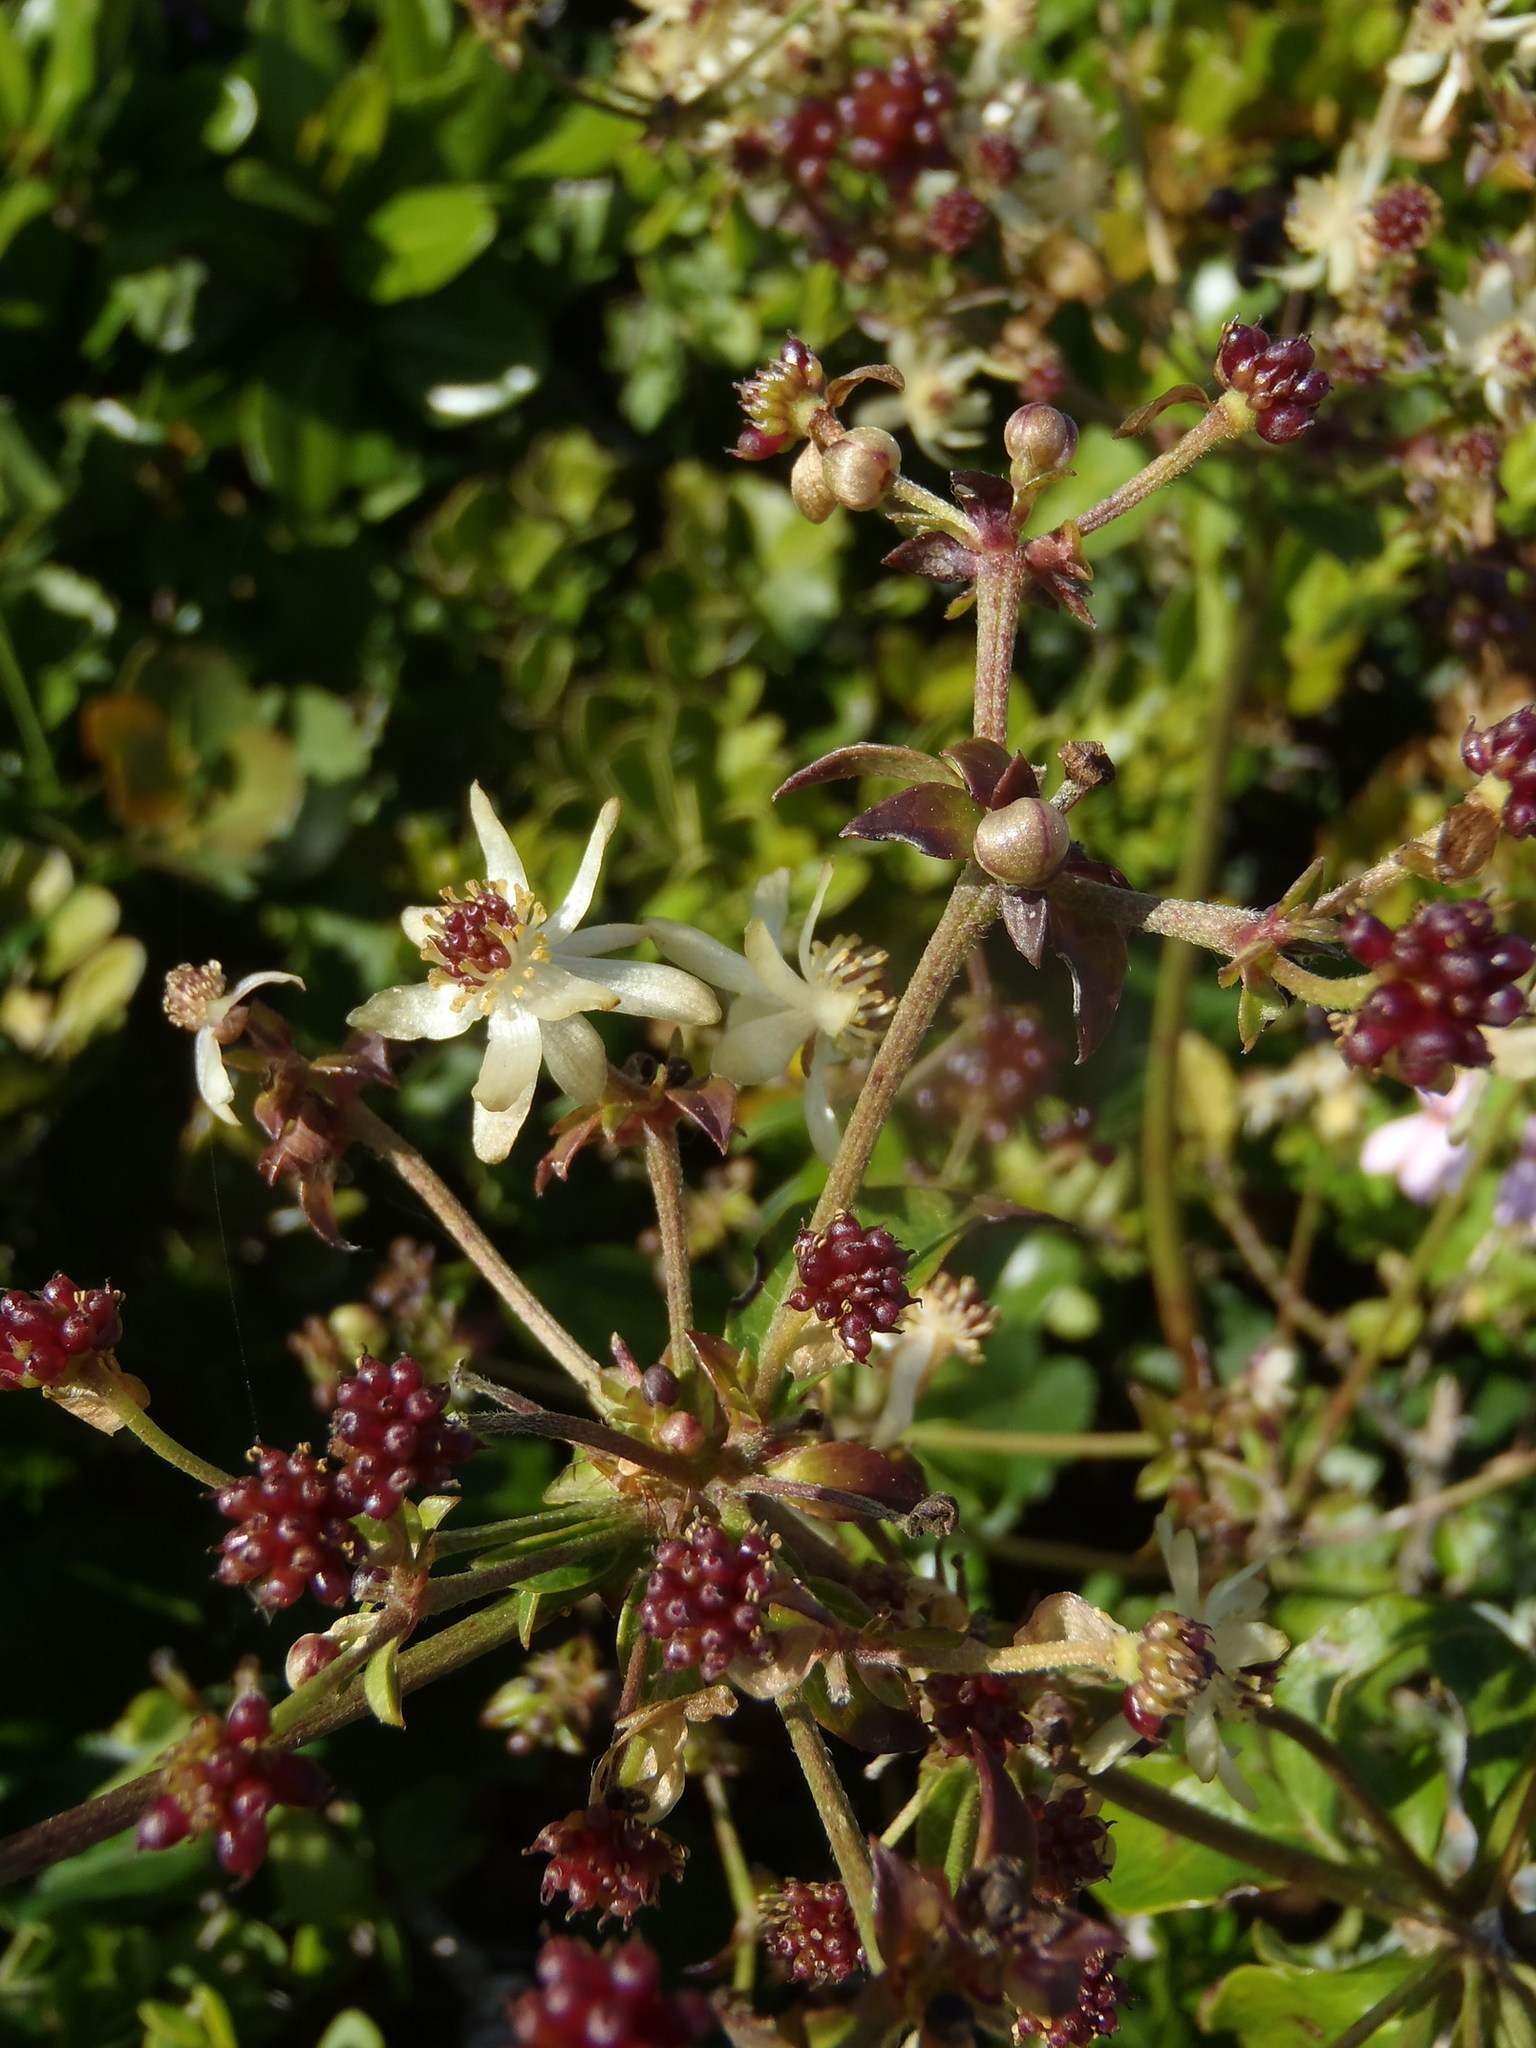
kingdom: Plantae
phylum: Tracheophyta
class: Magnoliopsida
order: Ranunculales
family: Ranunculaceae
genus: Knowltonia
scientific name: Knowltonia vesicatoria
